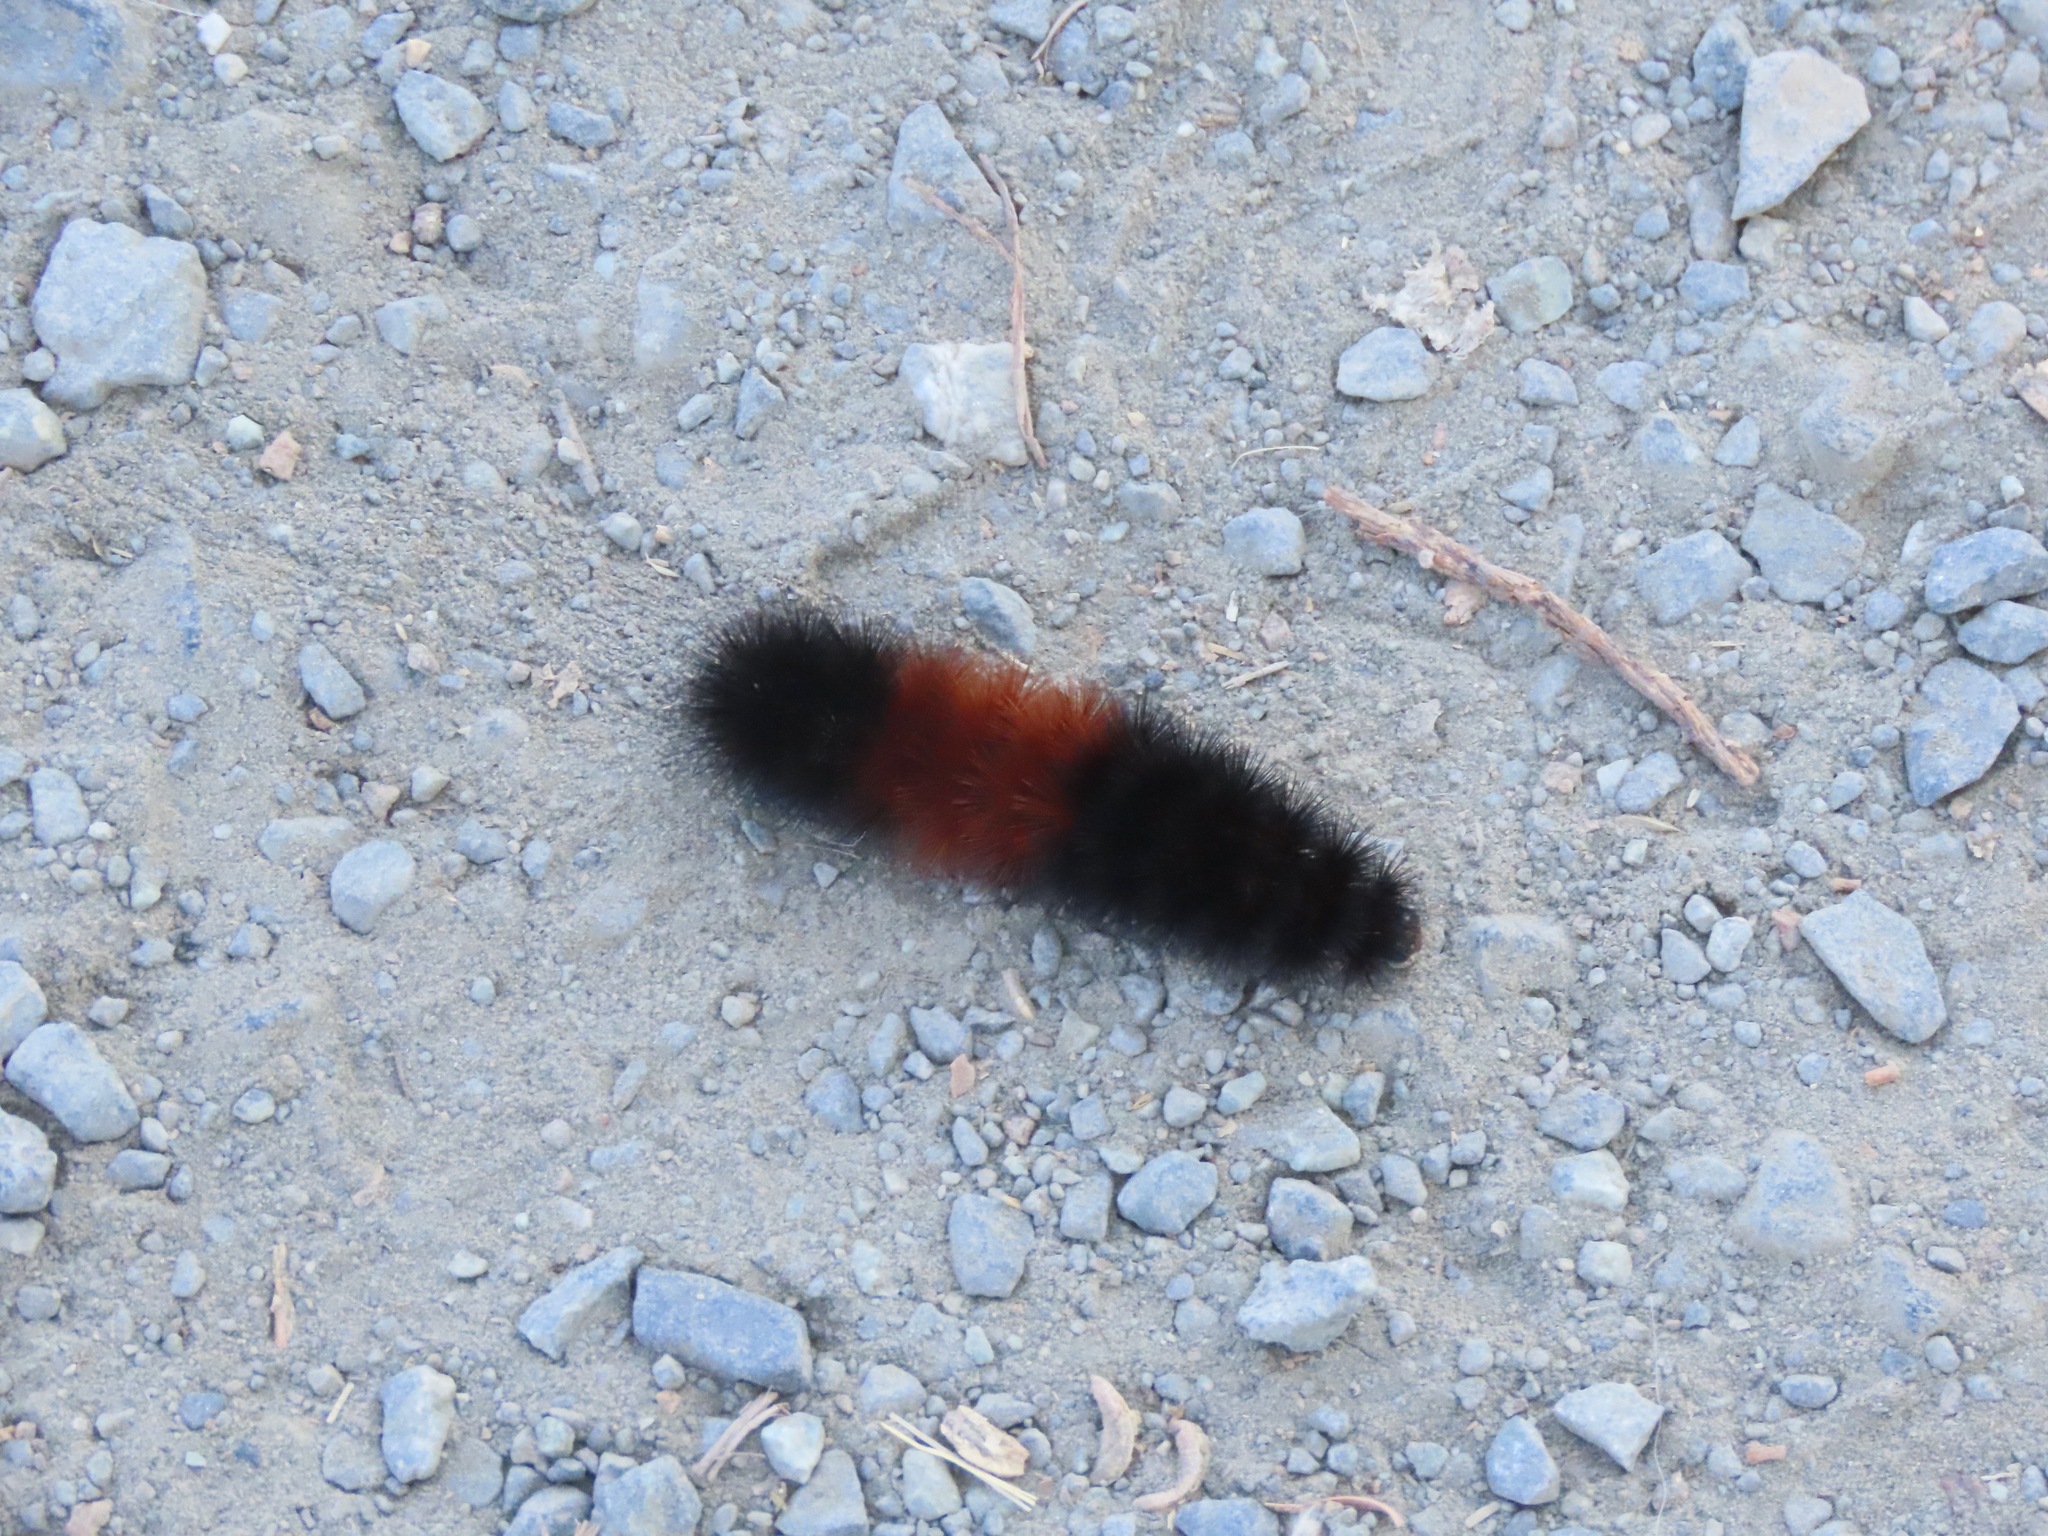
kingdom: Animalia
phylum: Arthropoda
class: Insecta
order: Lepidoptera
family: Erebidae
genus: Pyrrharctia
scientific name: Pyrrharctia isabella
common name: Isabella tiger moth
